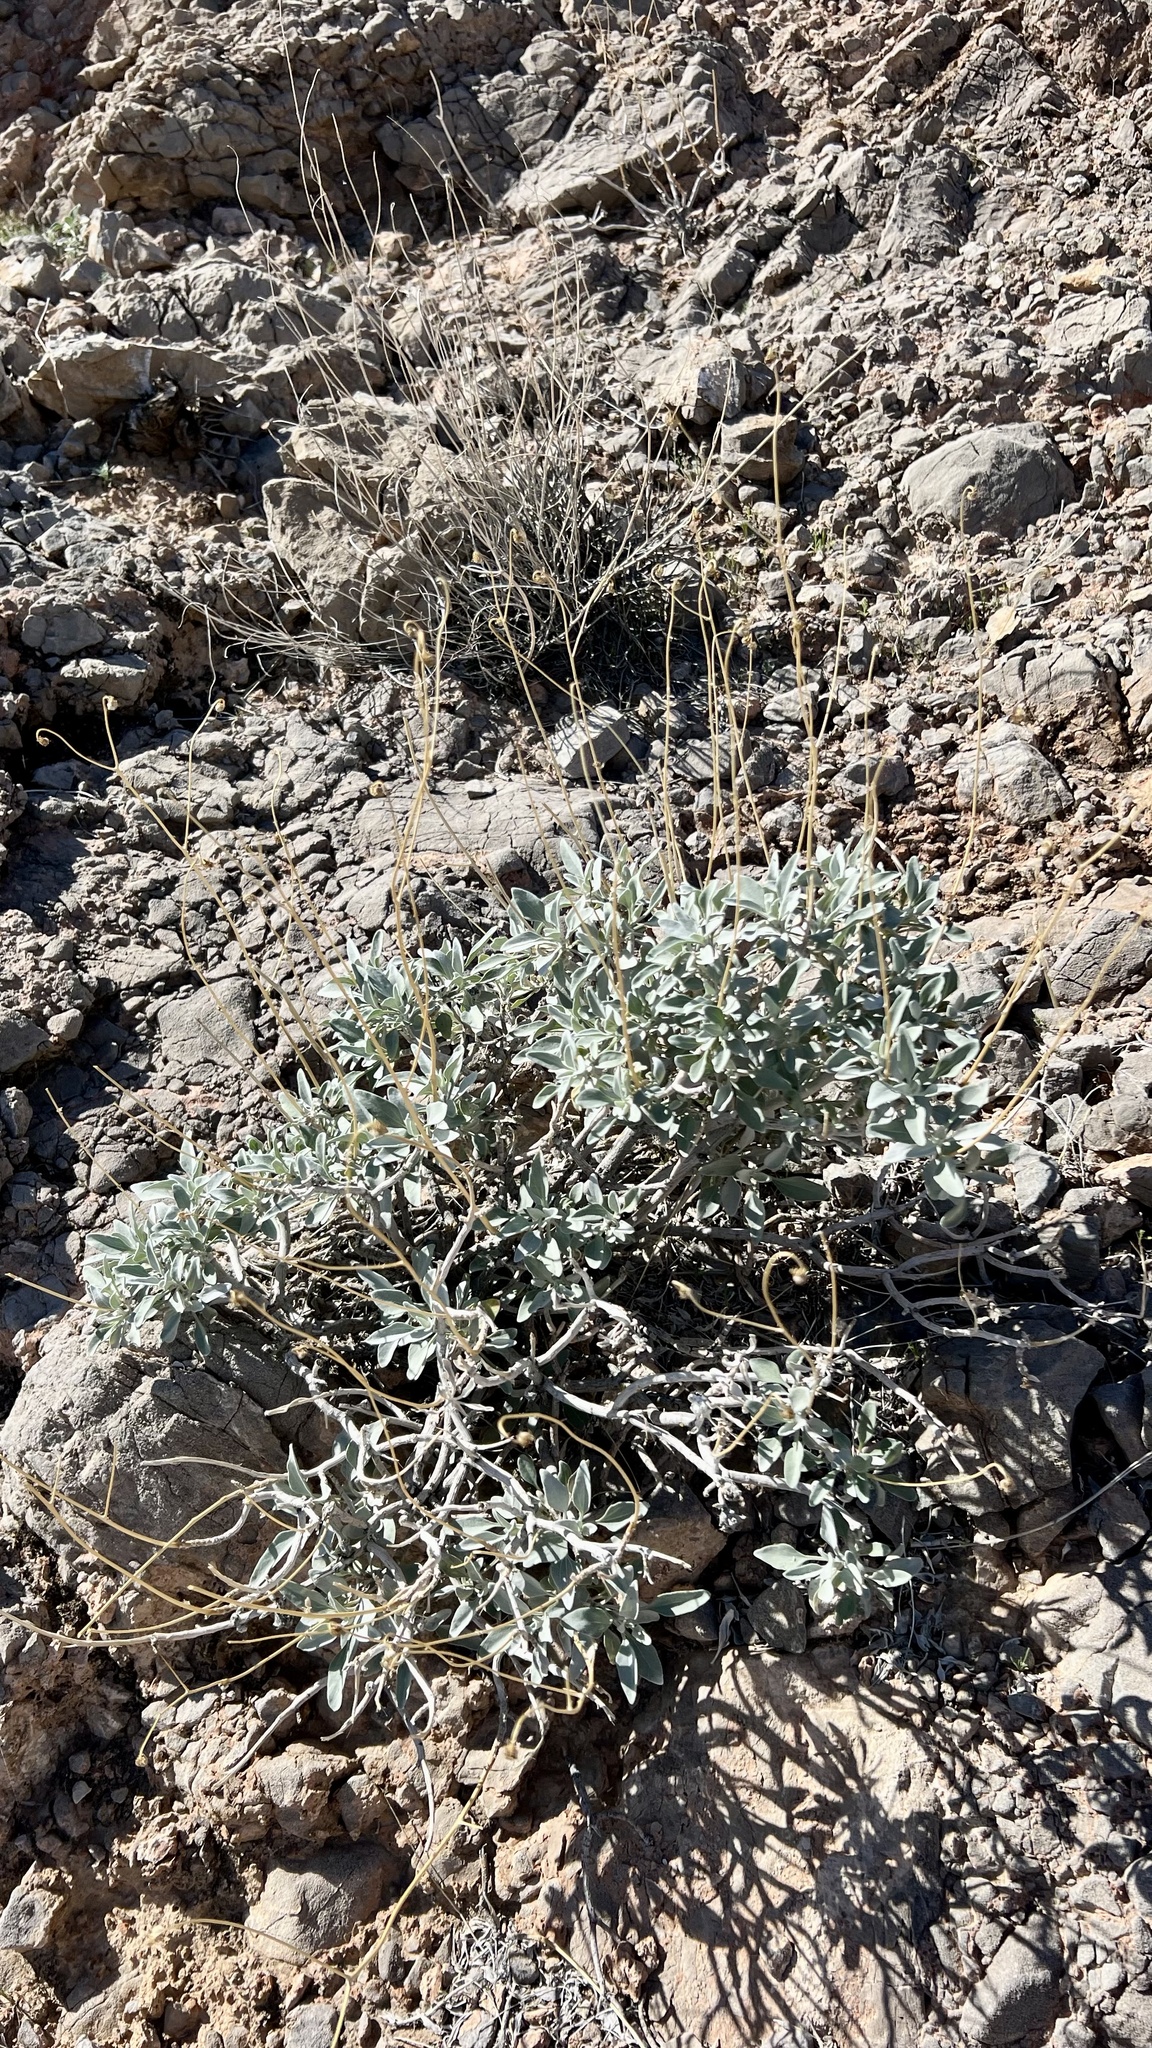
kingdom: Plantae
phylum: Tracheophyta
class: Magnoliopsida
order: Asterales
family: Asteraceae
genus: Encelia
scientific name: Encelia farinosa
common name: Brittlebush
